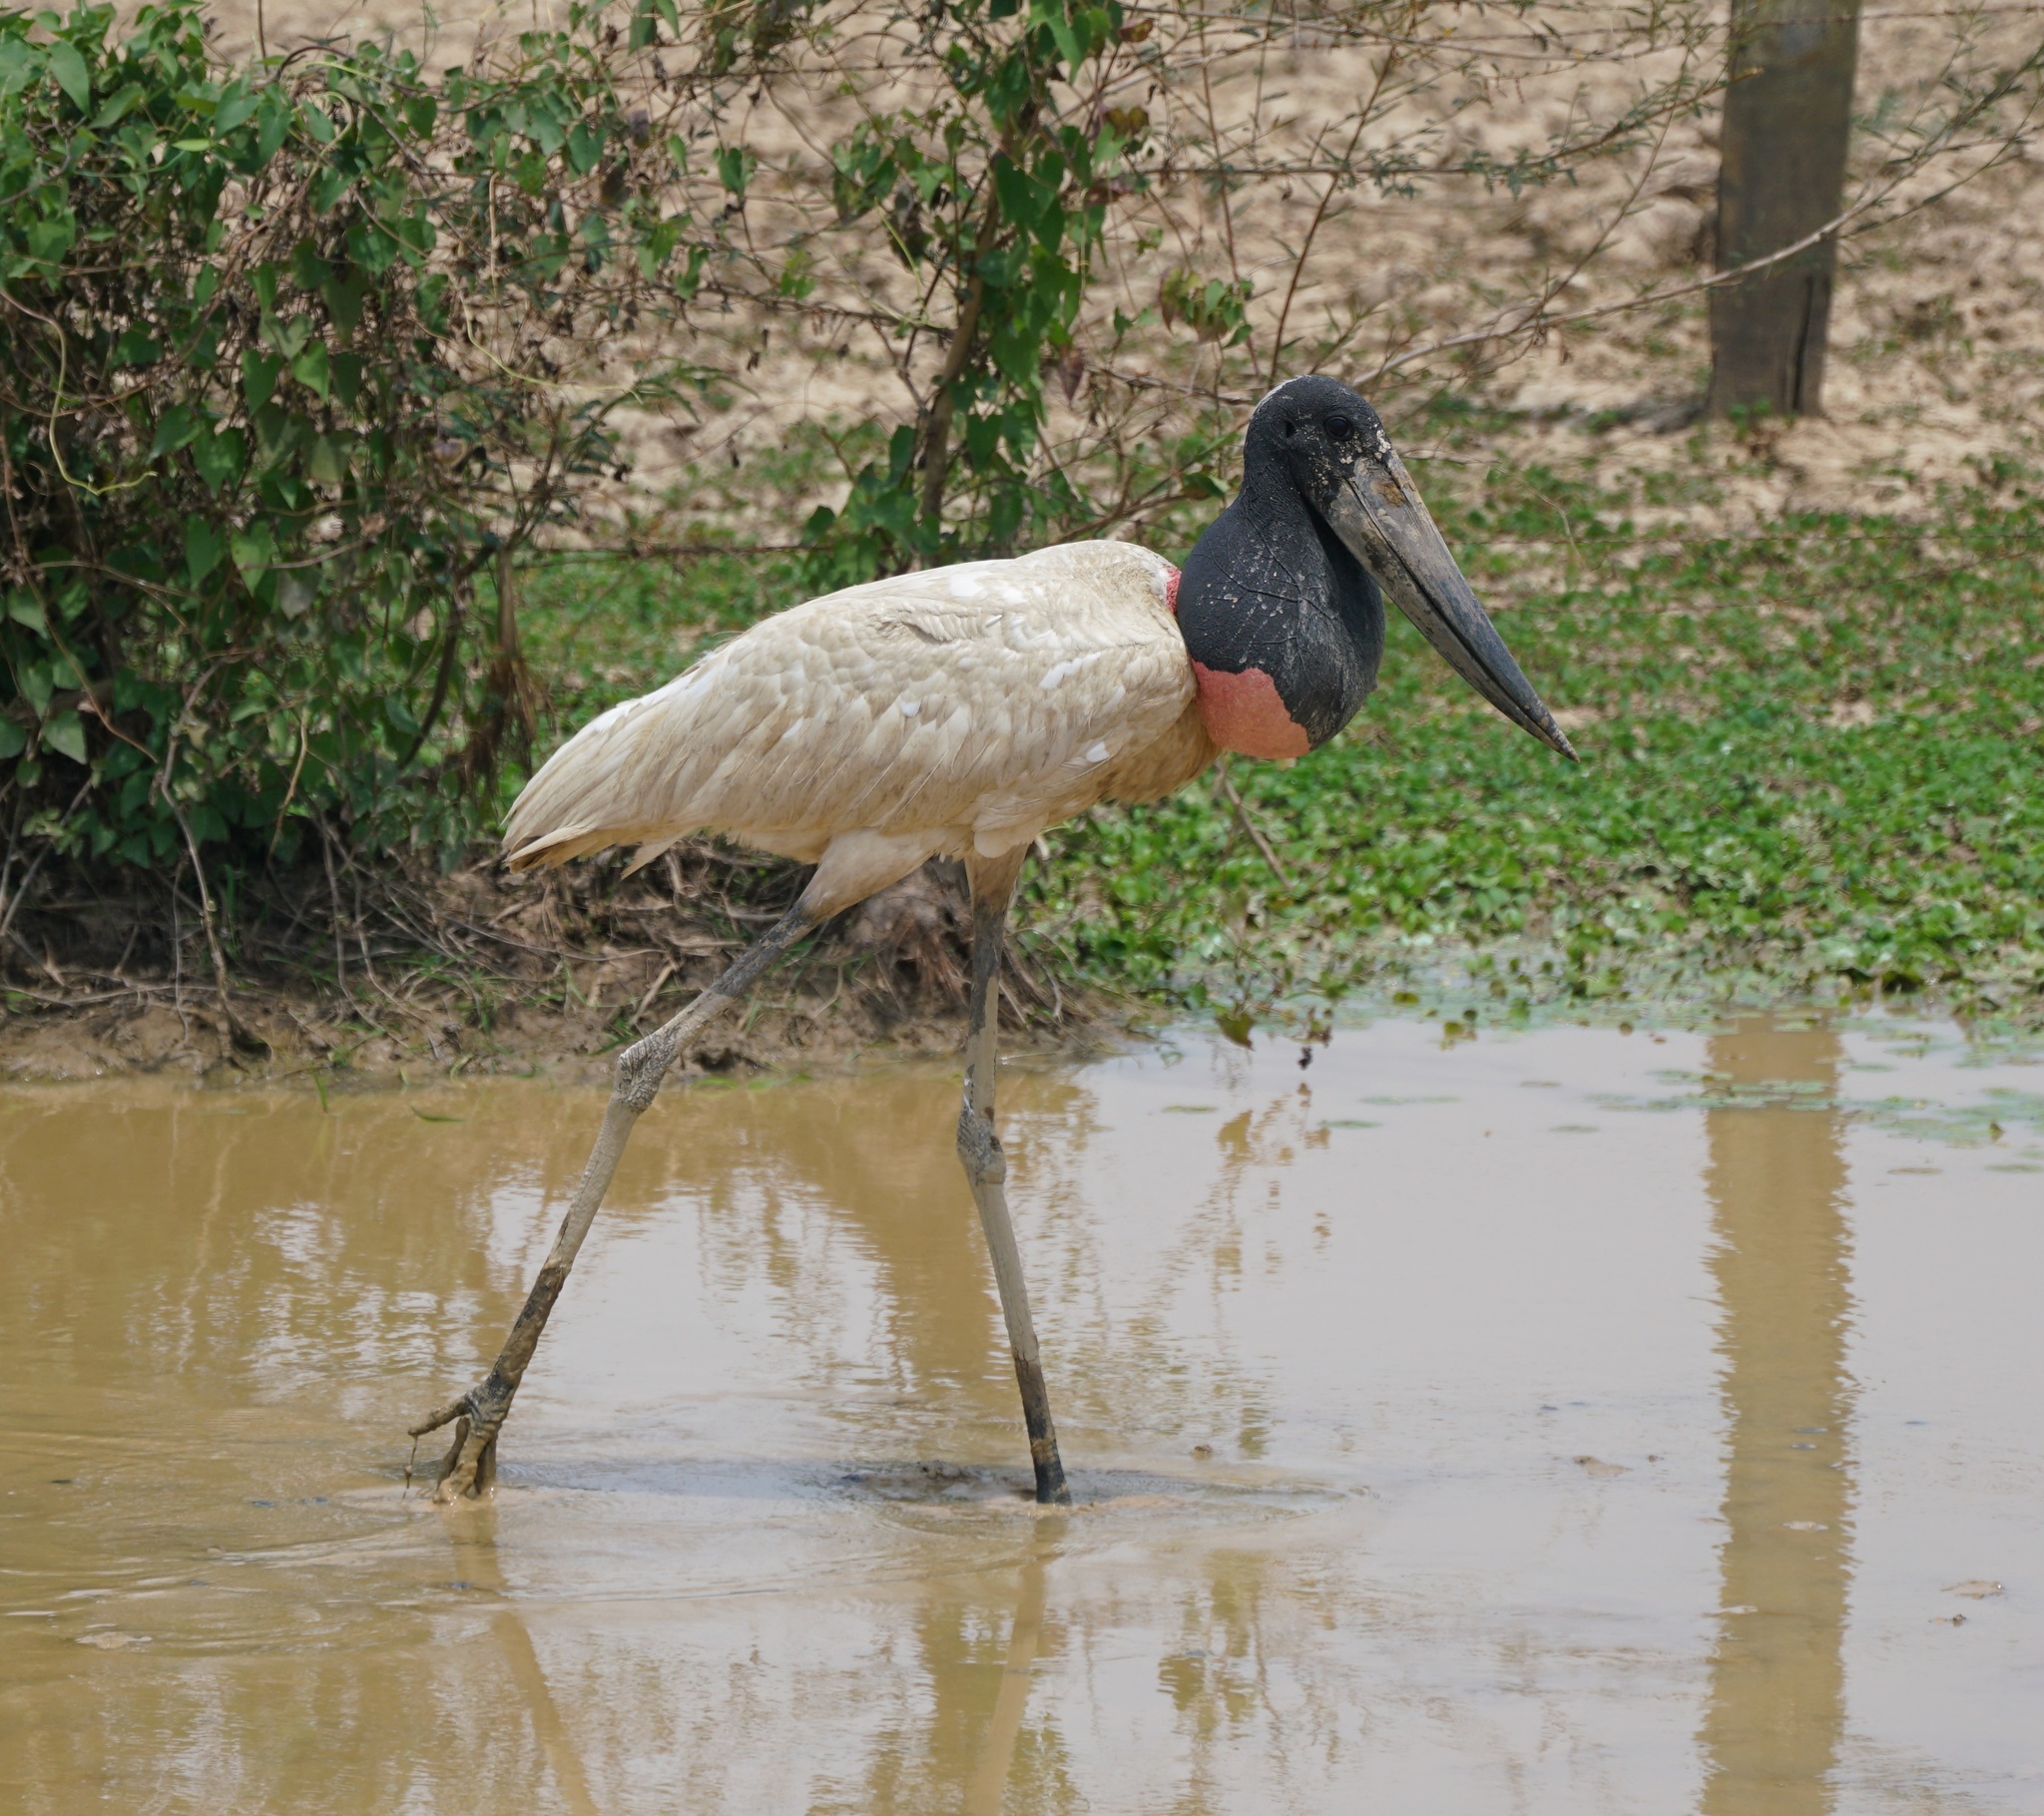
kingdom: Animalia
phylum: Chordata
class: Aves
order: Ciconiiformes
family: Ciconiidae
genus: Jabiru
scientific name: Jabiru mycteria
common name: Jabiru
